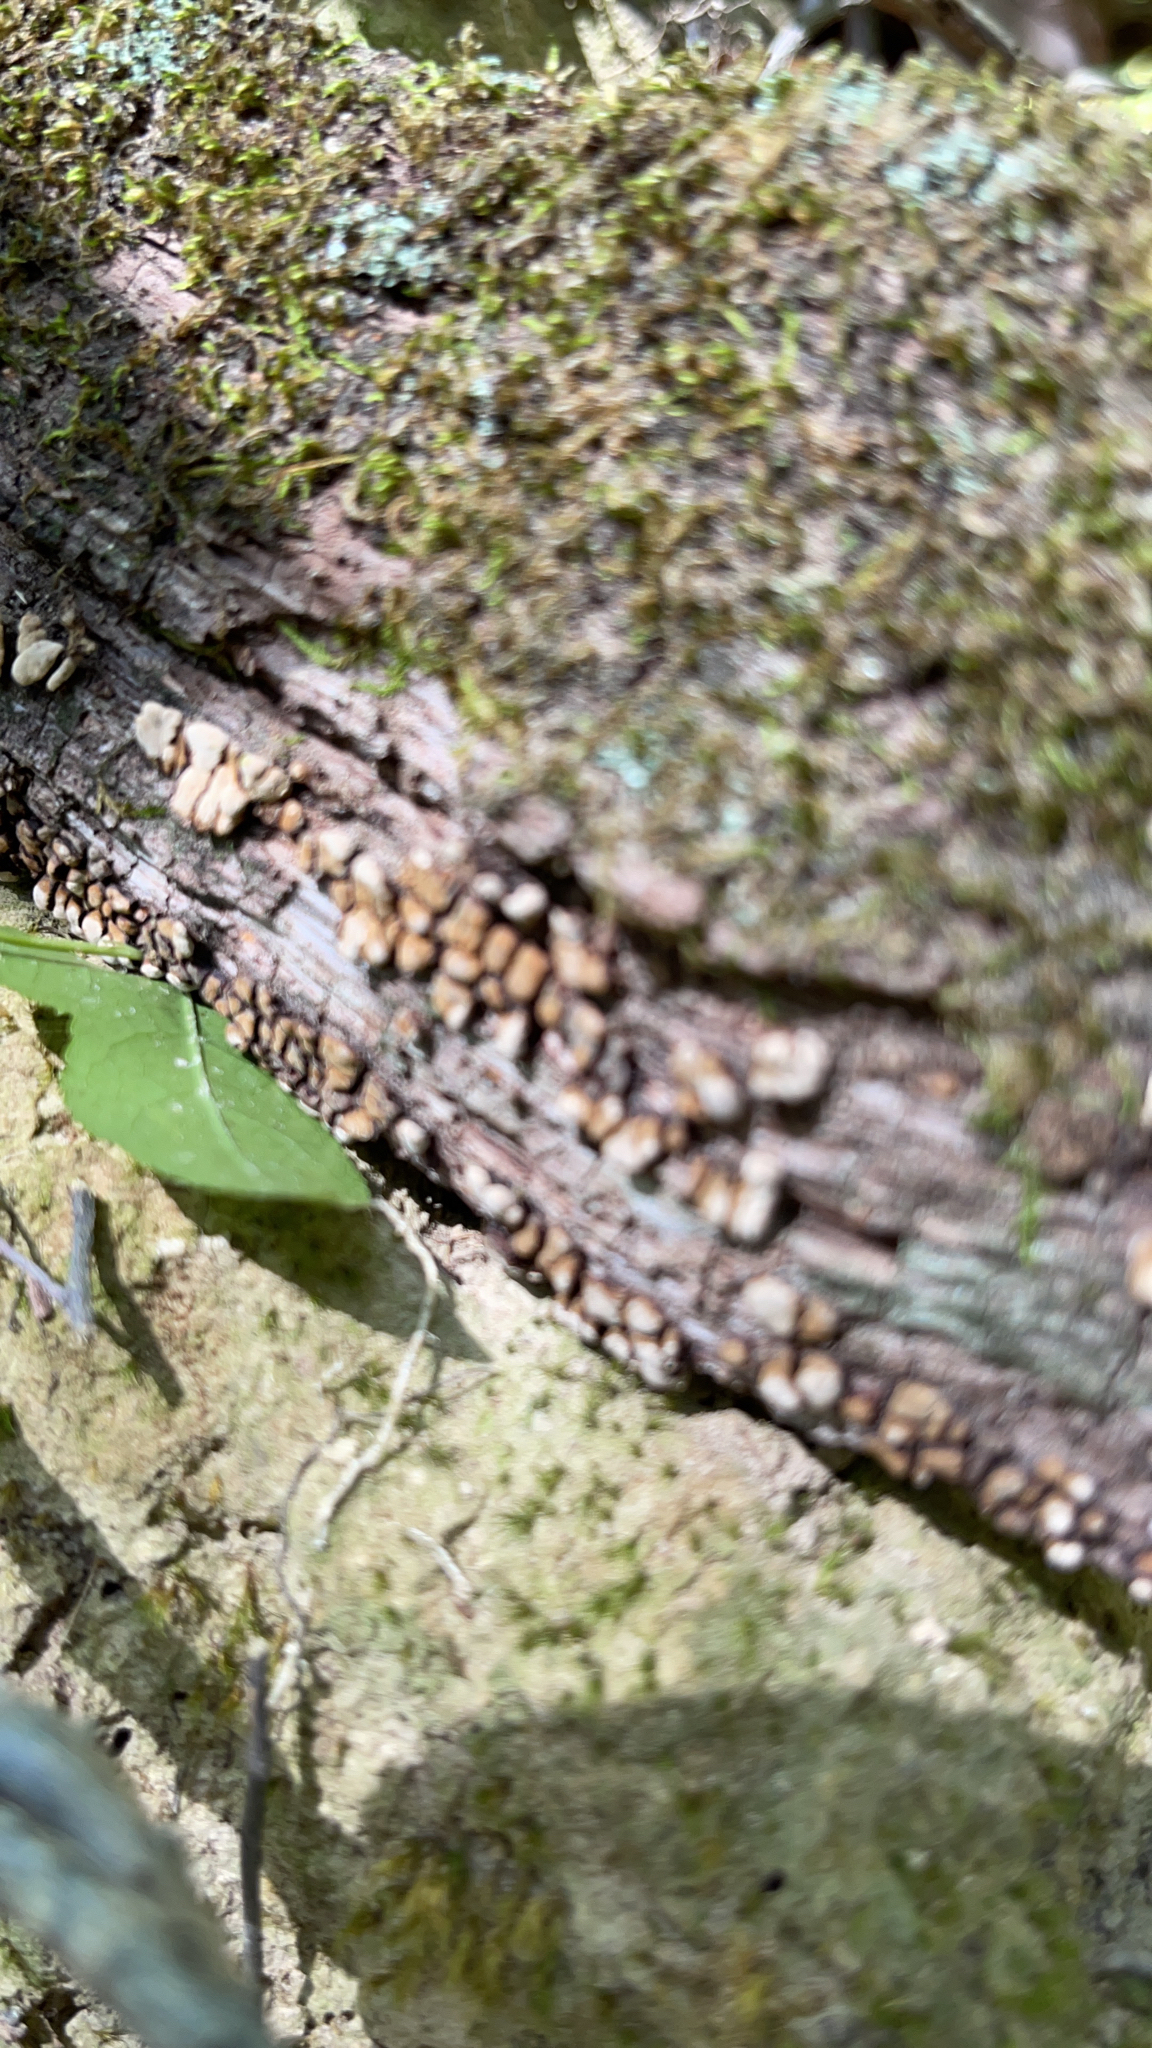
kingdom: Fungi
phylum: Basidiomycota
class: Agaricomycetes
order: Russulales
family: Stereaceae
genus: Xylobolus
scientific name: Xylobolus frustulatus
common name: Ceramic parchment
